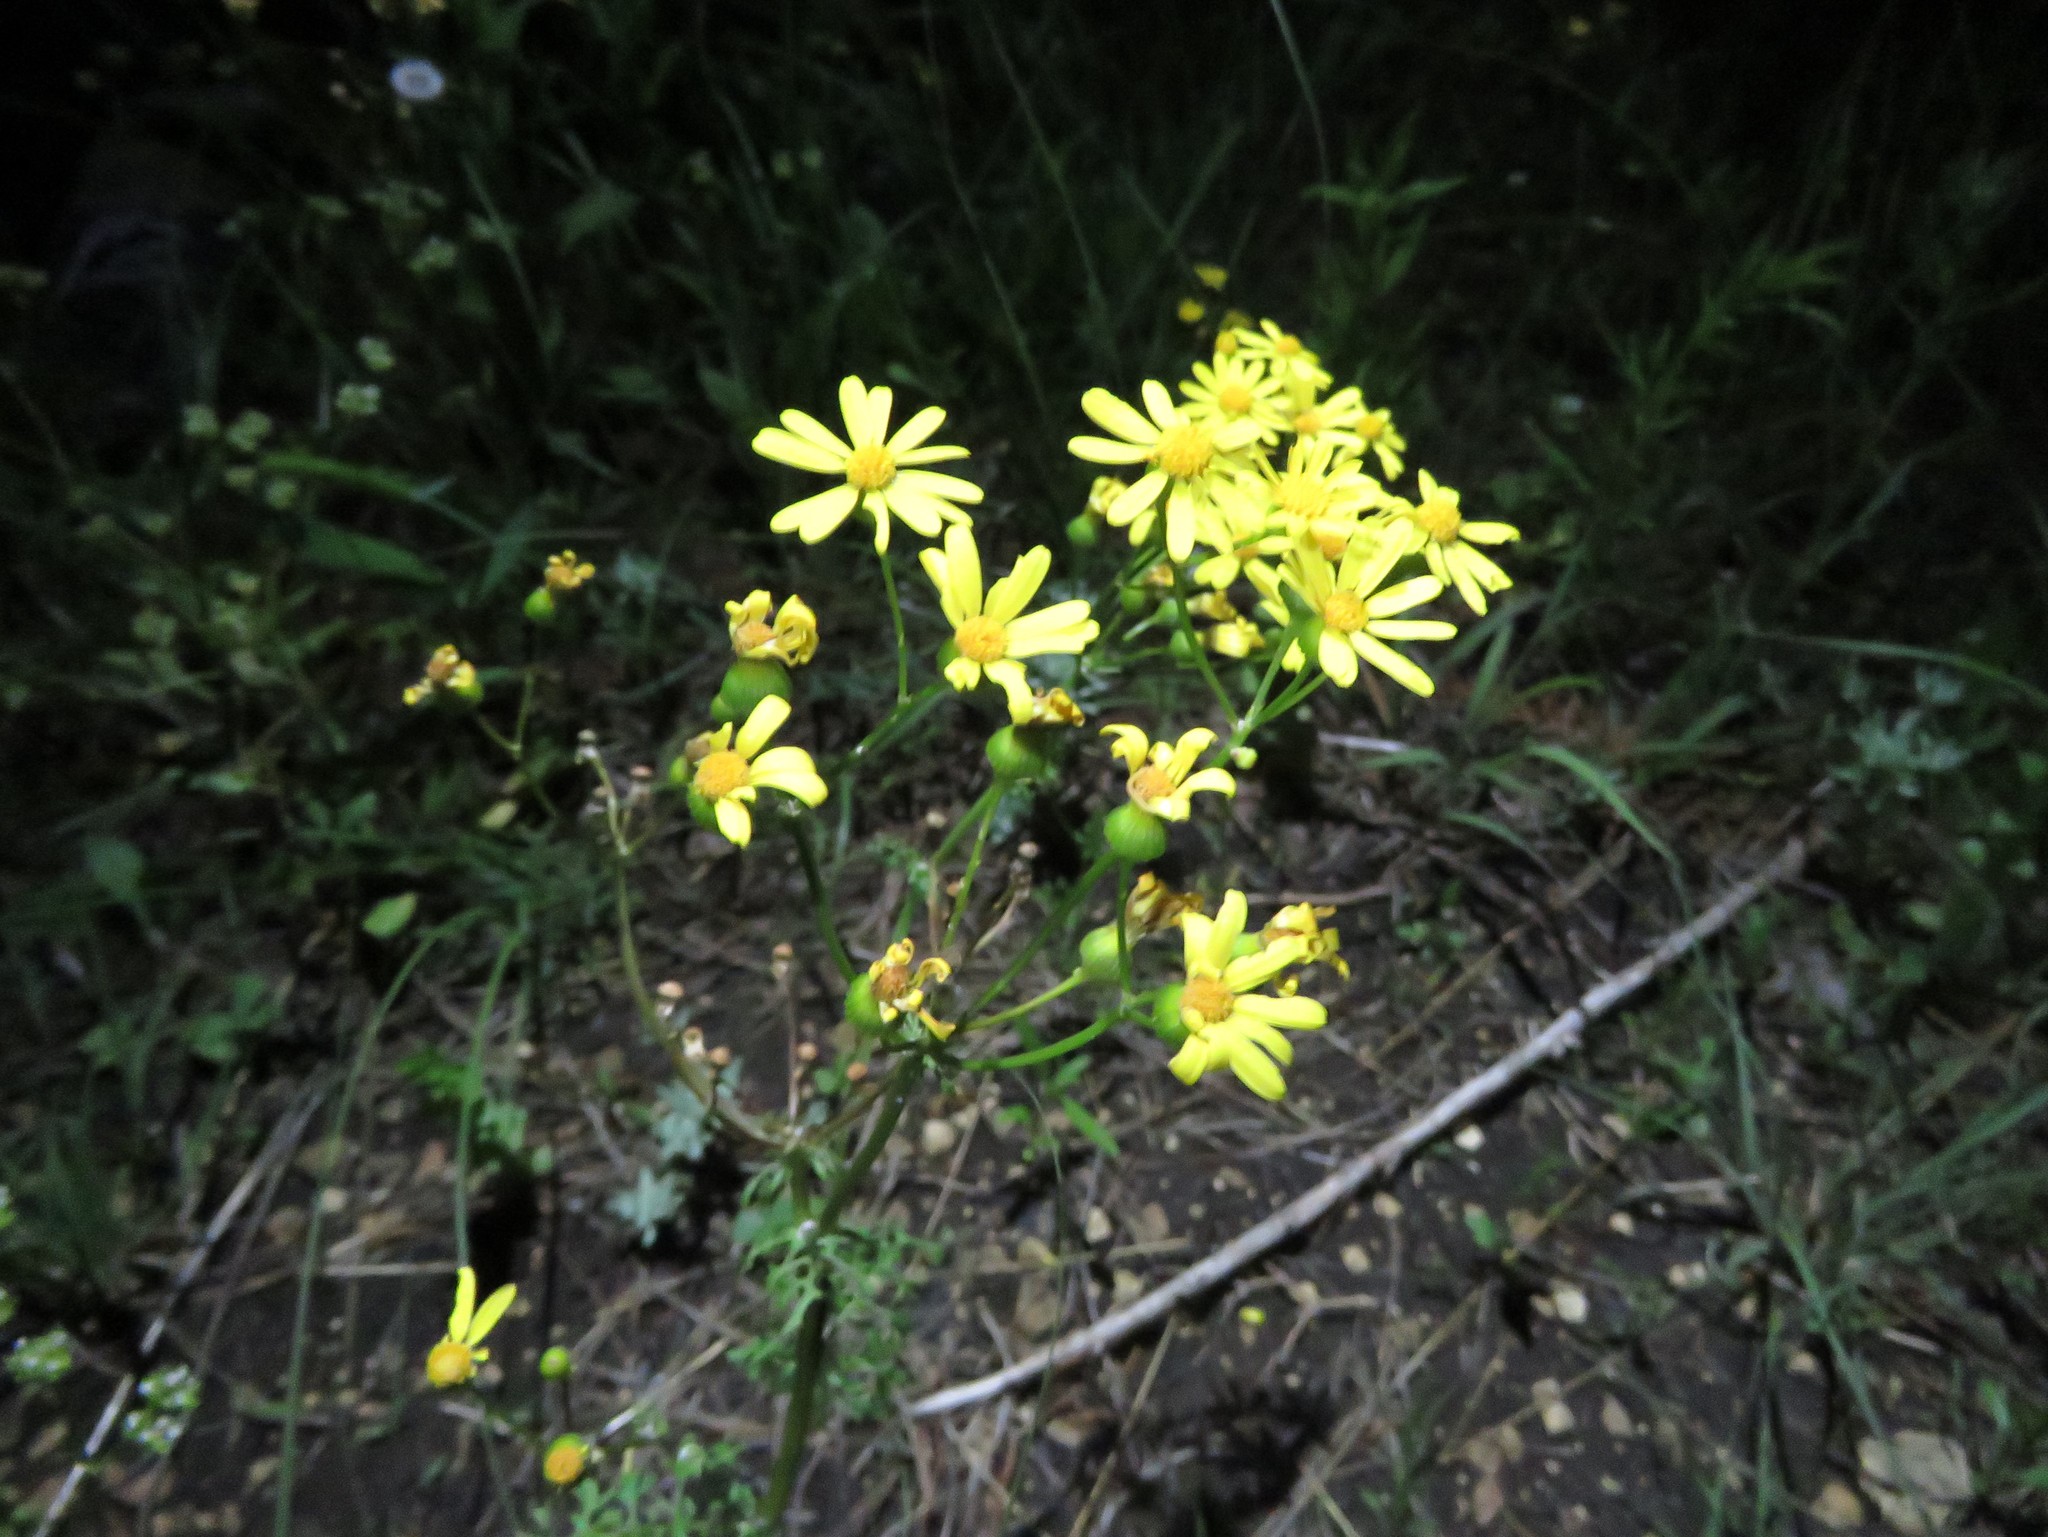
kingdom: Plantae
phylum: Tracheophyta
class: Magnoliopsida
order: Asterales
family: Asteraceae
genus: Packera
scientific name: Packera tampicana
